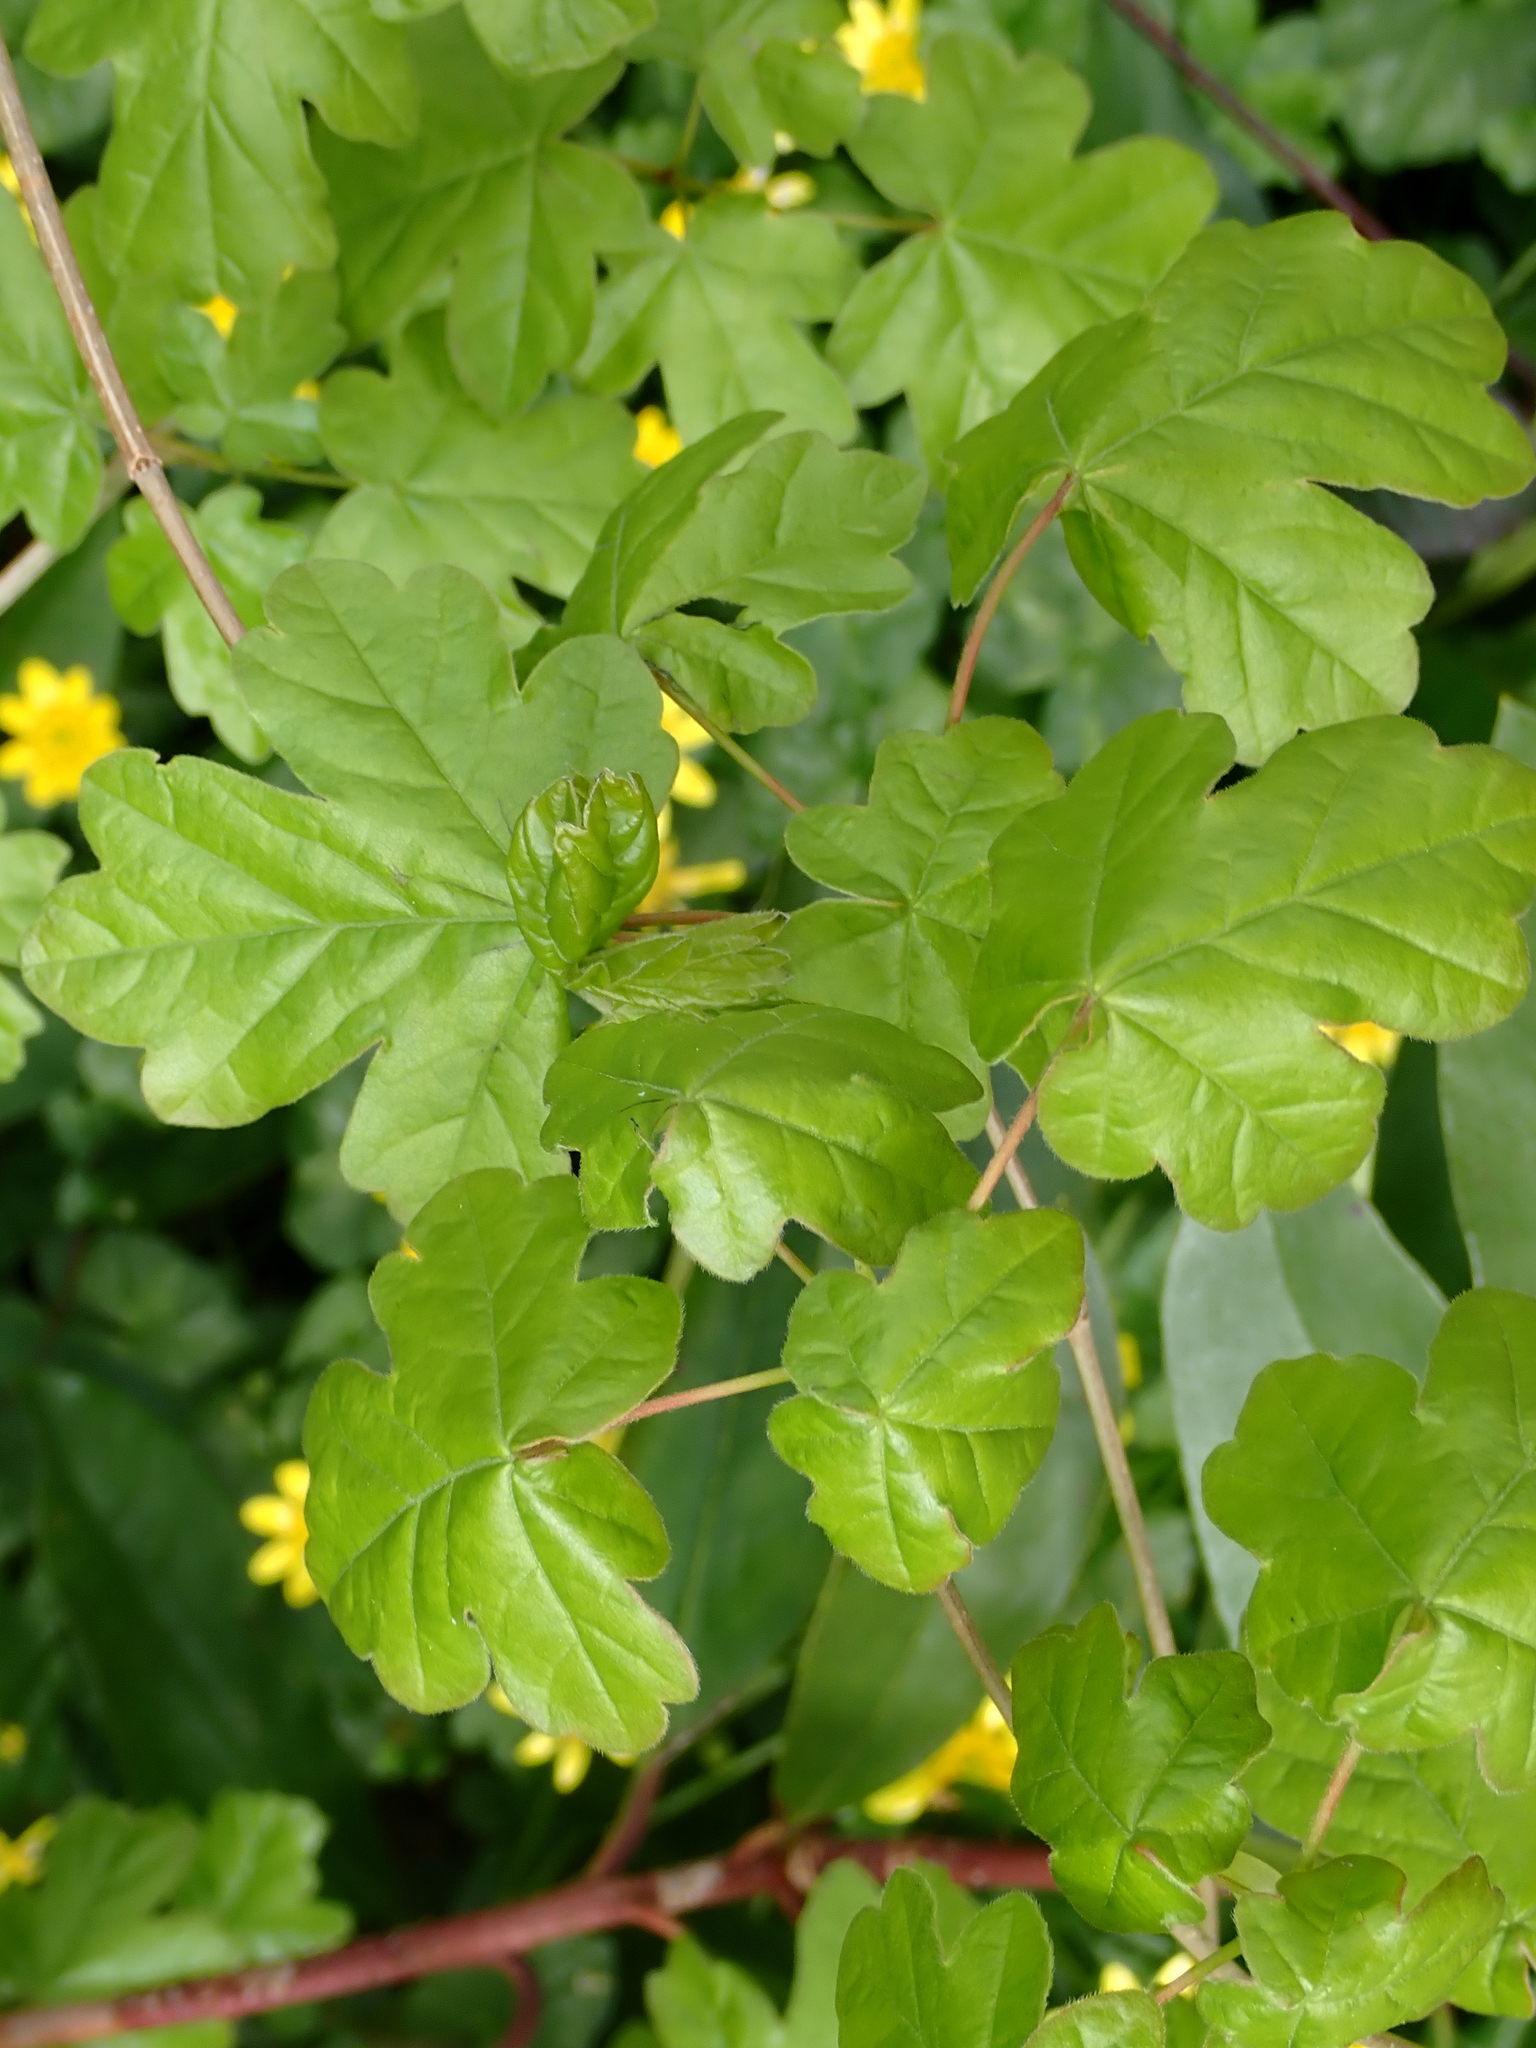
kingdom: Plantae
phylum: Tracheophyta
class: Magnoliopsida
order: Sapindales
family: Sapindaceae
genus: Acer
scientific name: Acer campestre
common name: Field maple
